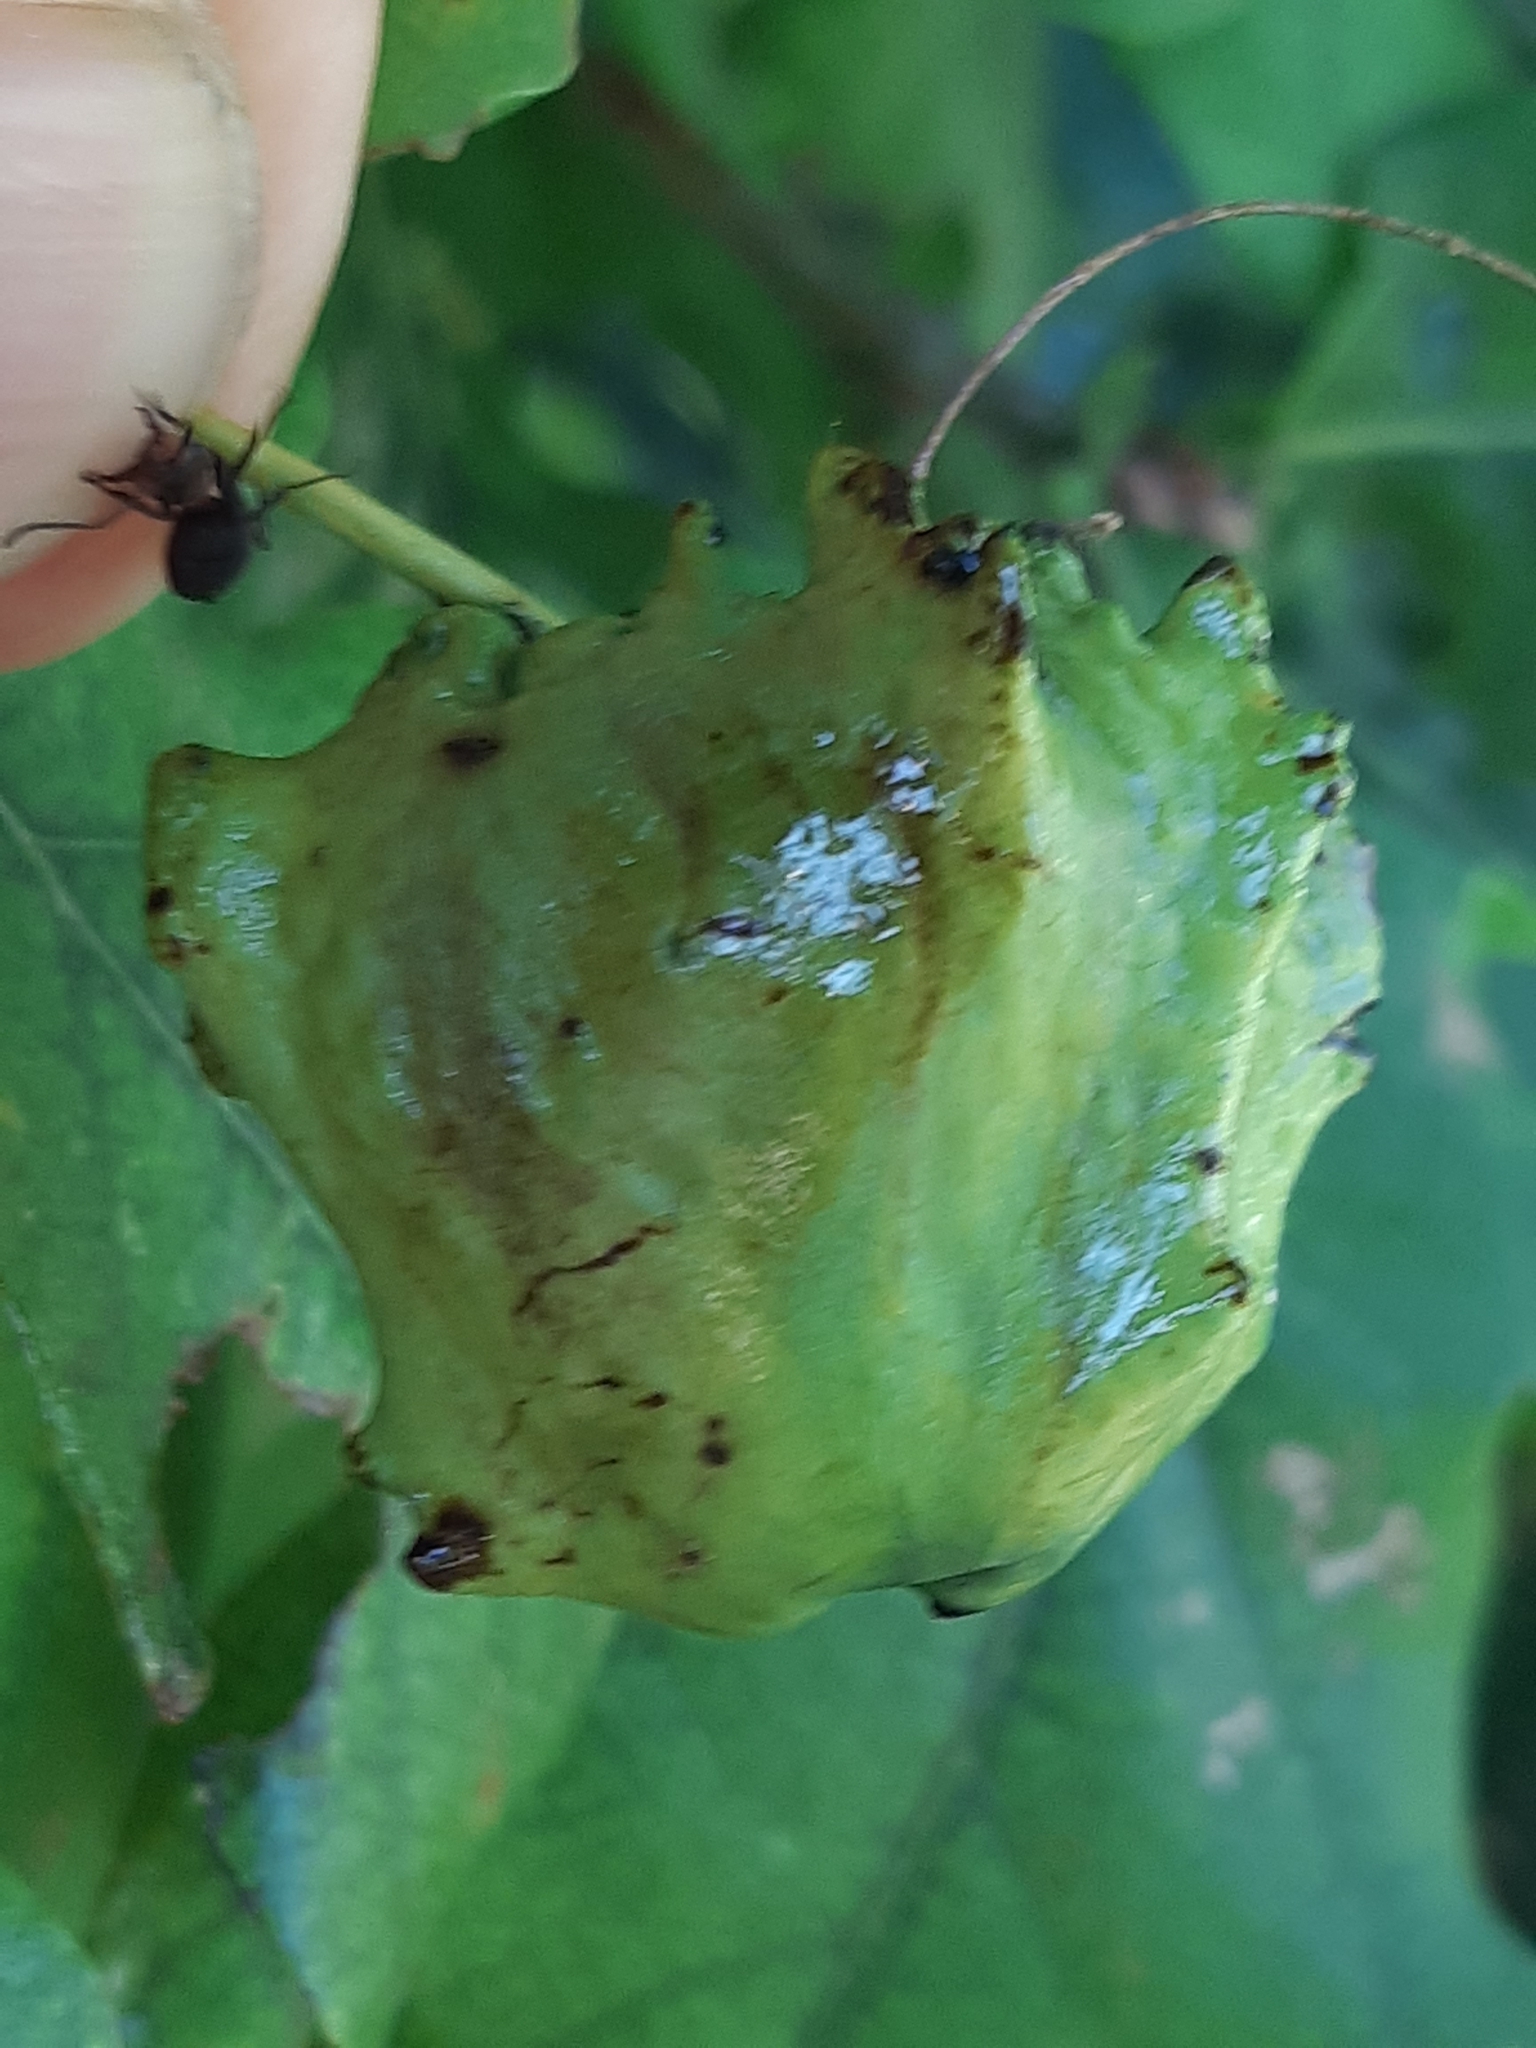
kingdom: Animalia
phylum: Arthropoda
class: Insecta
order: Hymenoptera
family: Cynipidae
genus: Andricus
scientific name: Andricus quercuscalicis
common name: Knopper gall
